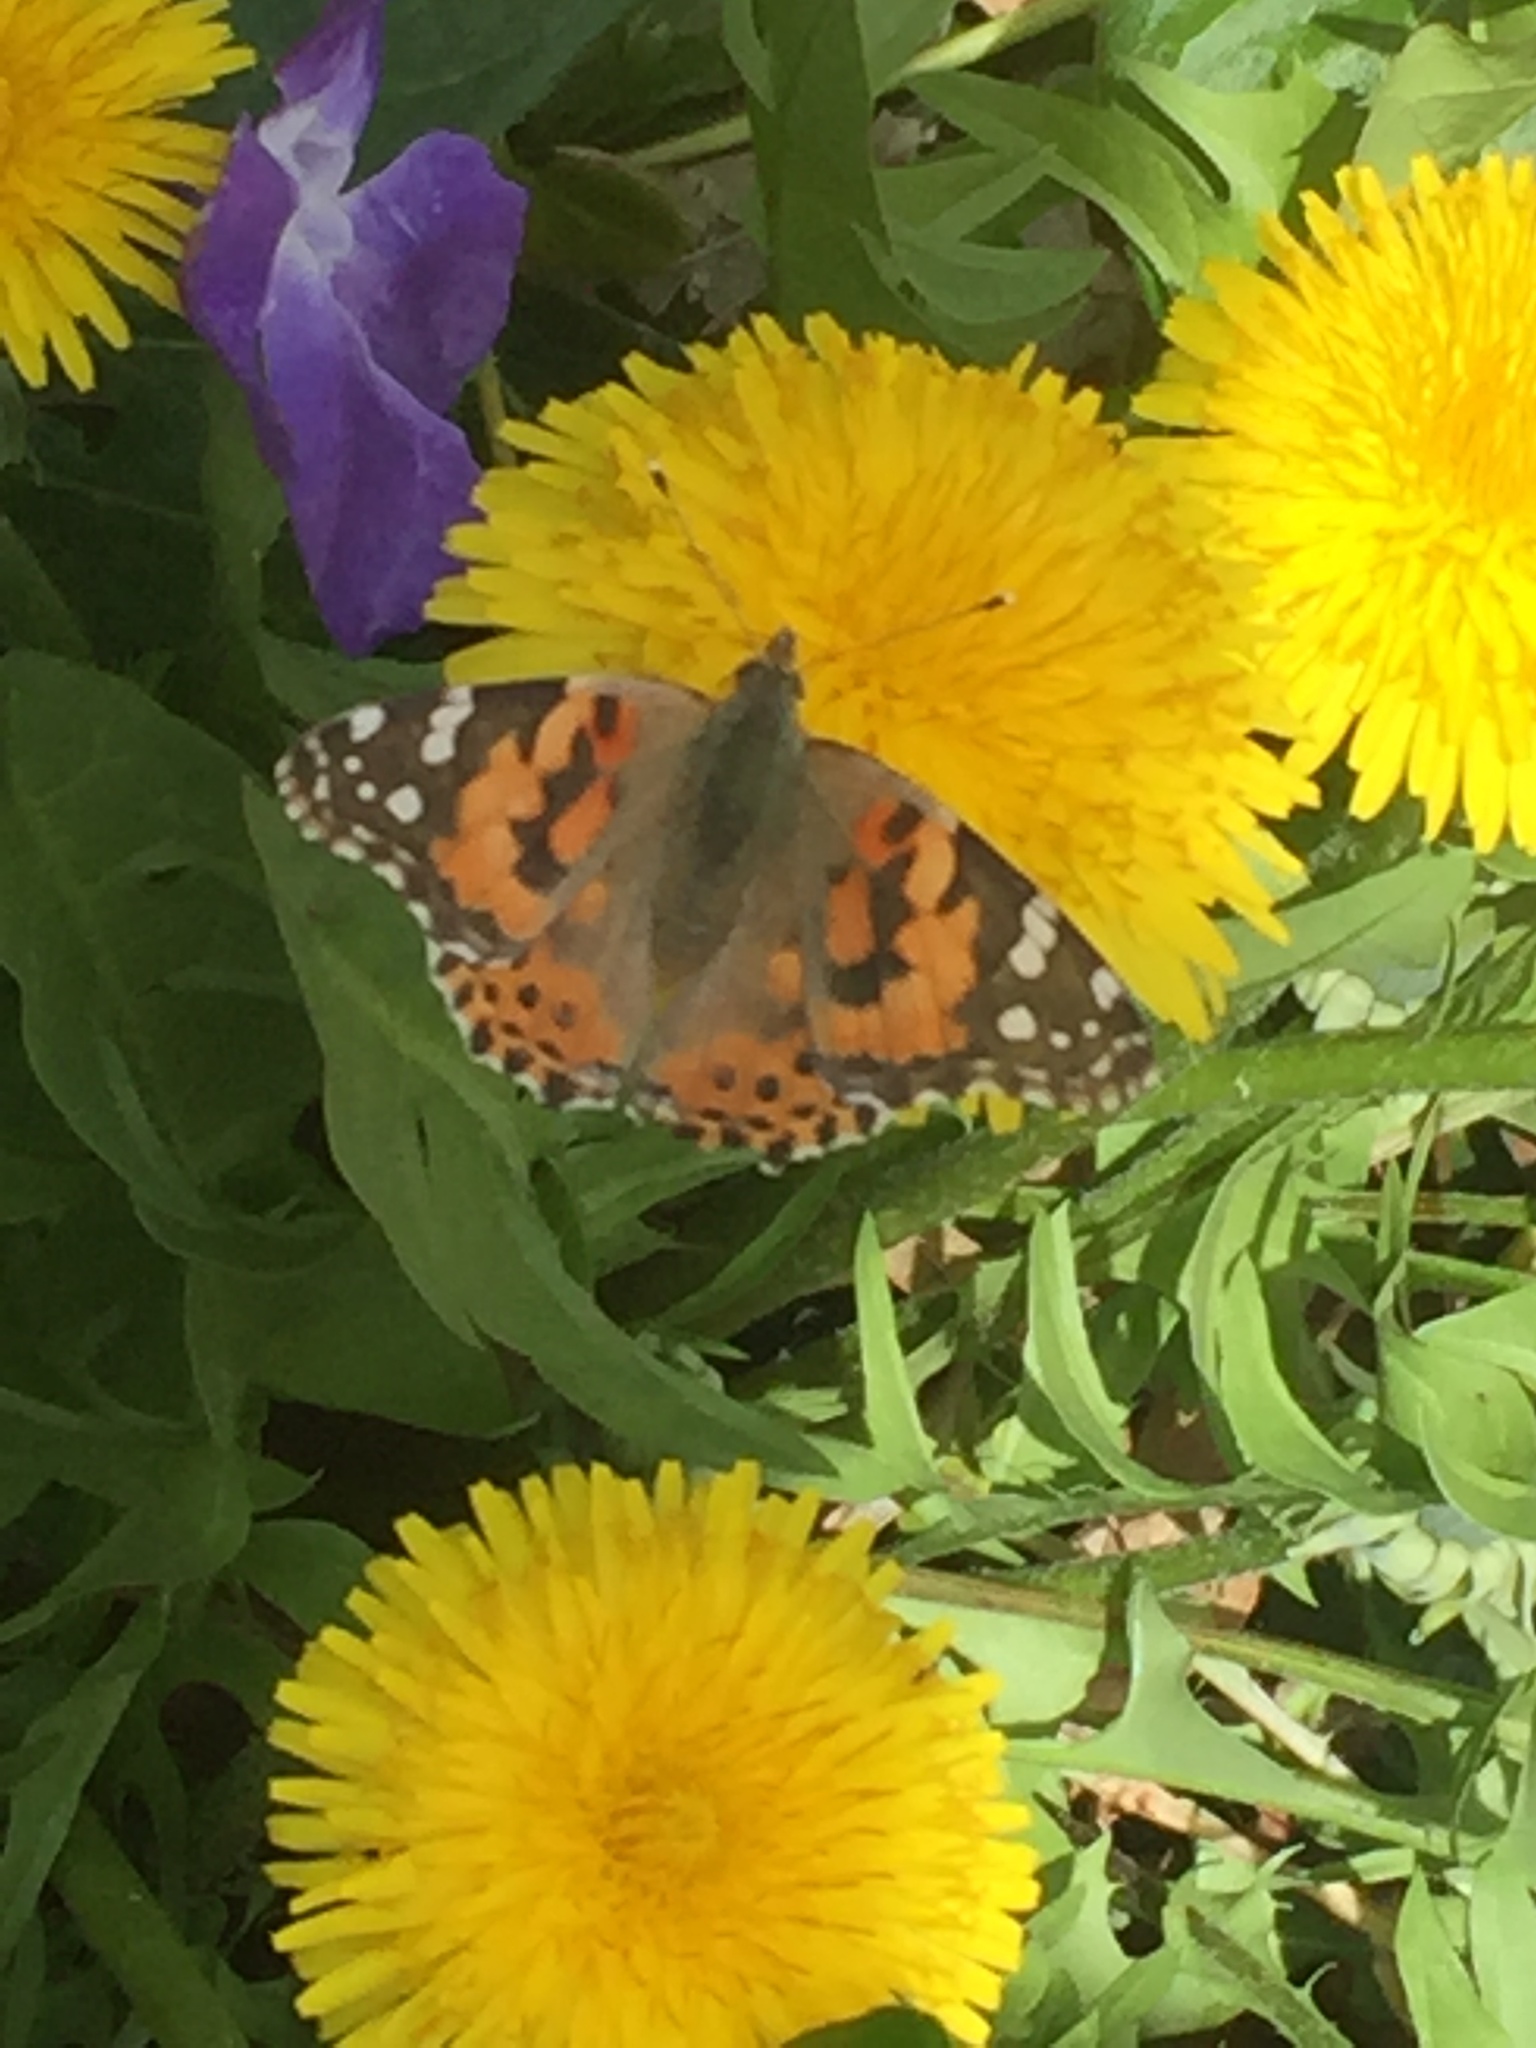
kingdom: Animalia
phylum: Arthropoda
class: Insecta
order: Lepidoptera
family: Nymphalidae
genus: Vanessa
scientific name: Vanessa cardui
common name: Painted lady
